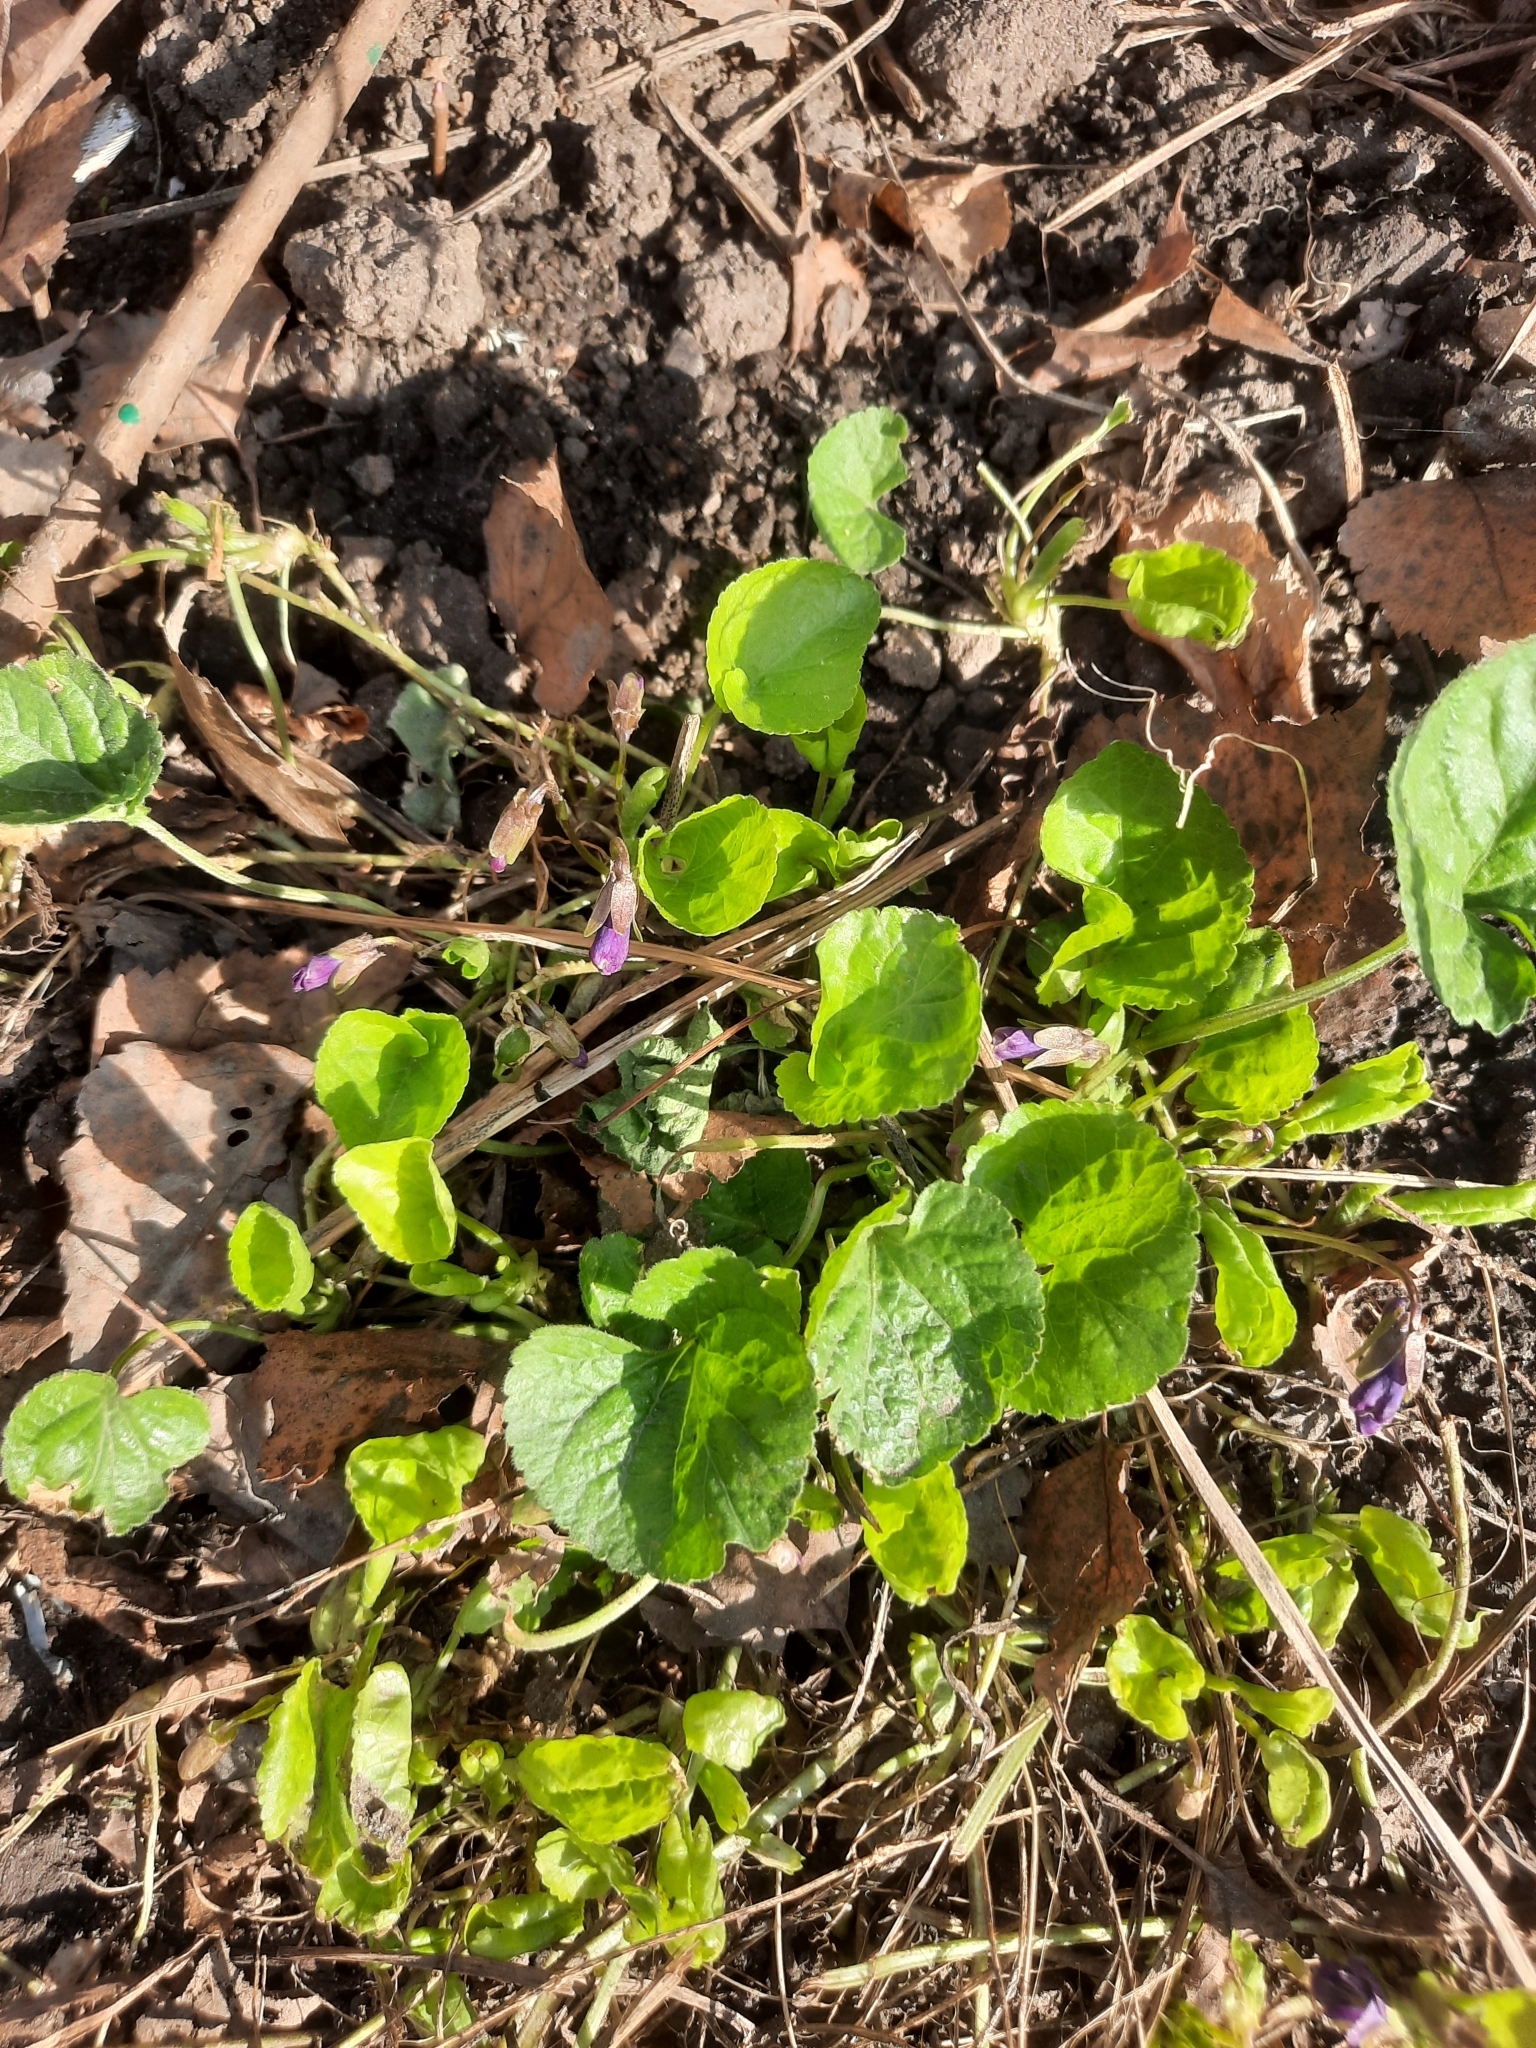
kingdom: Plantae
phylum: Tracheophyta
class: Magnoliopsida
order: Malpighiales
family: Violaceae
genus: Viola
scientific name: Viola odorata
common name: Sweet violet
